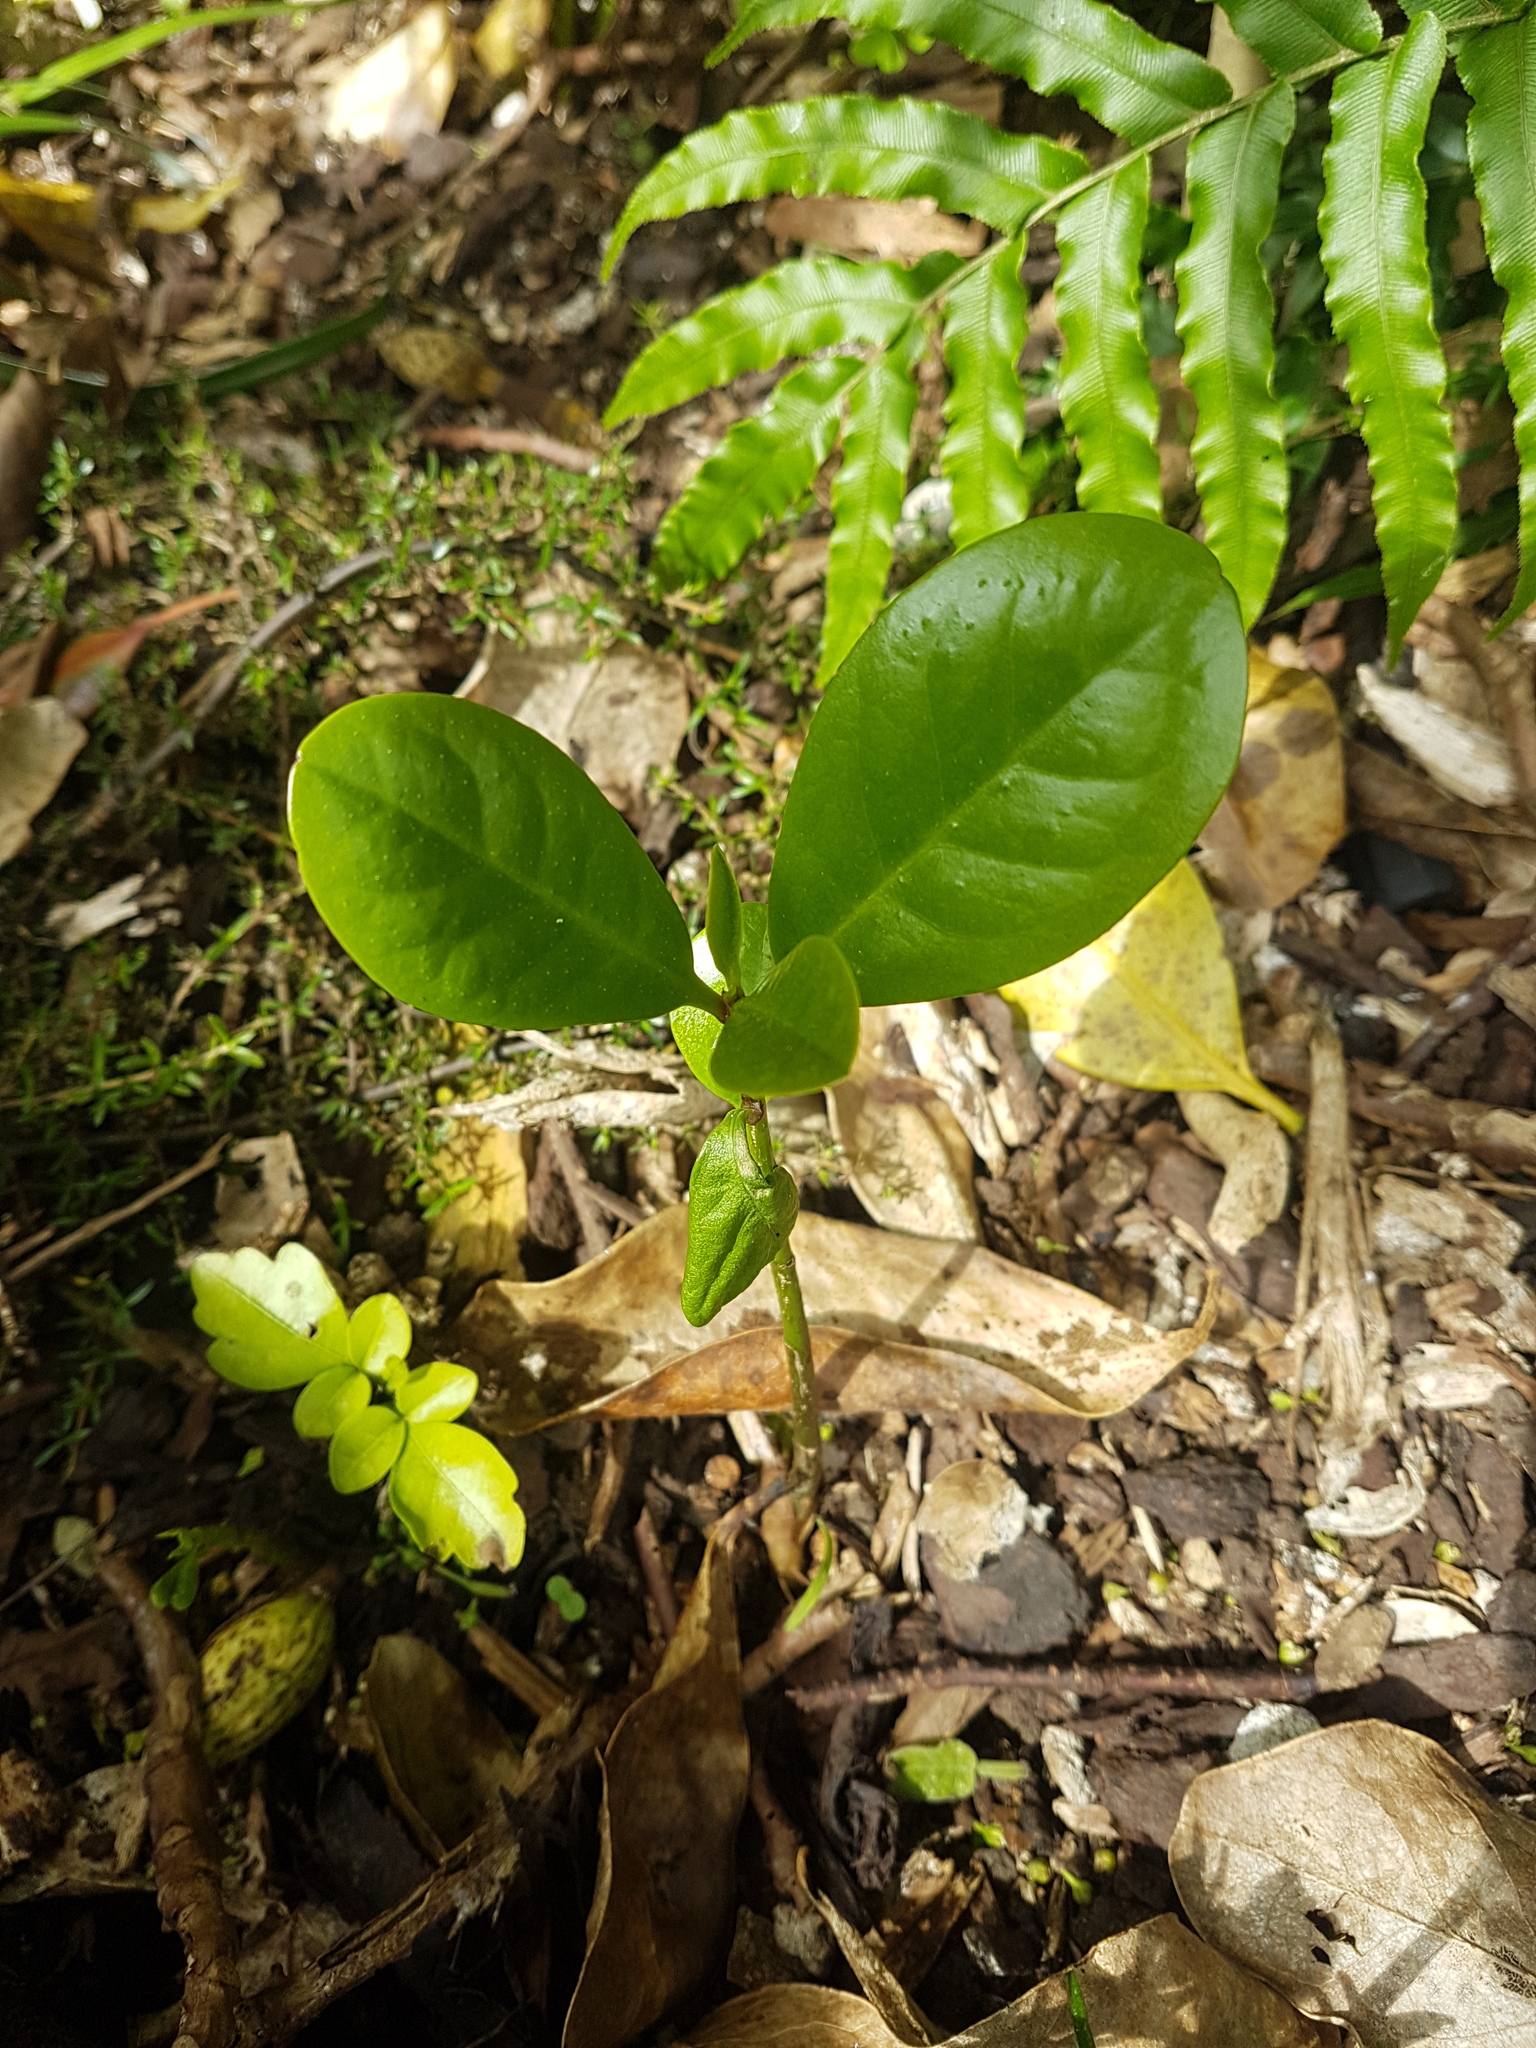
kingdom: Plantae
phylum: Tracheophyta
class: Magnoliopsida
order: Cucurbitales
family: Corynocarpaceae
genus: Corynocarpus
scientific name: Corynocarpus laevigatus
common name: New zealand laurel
